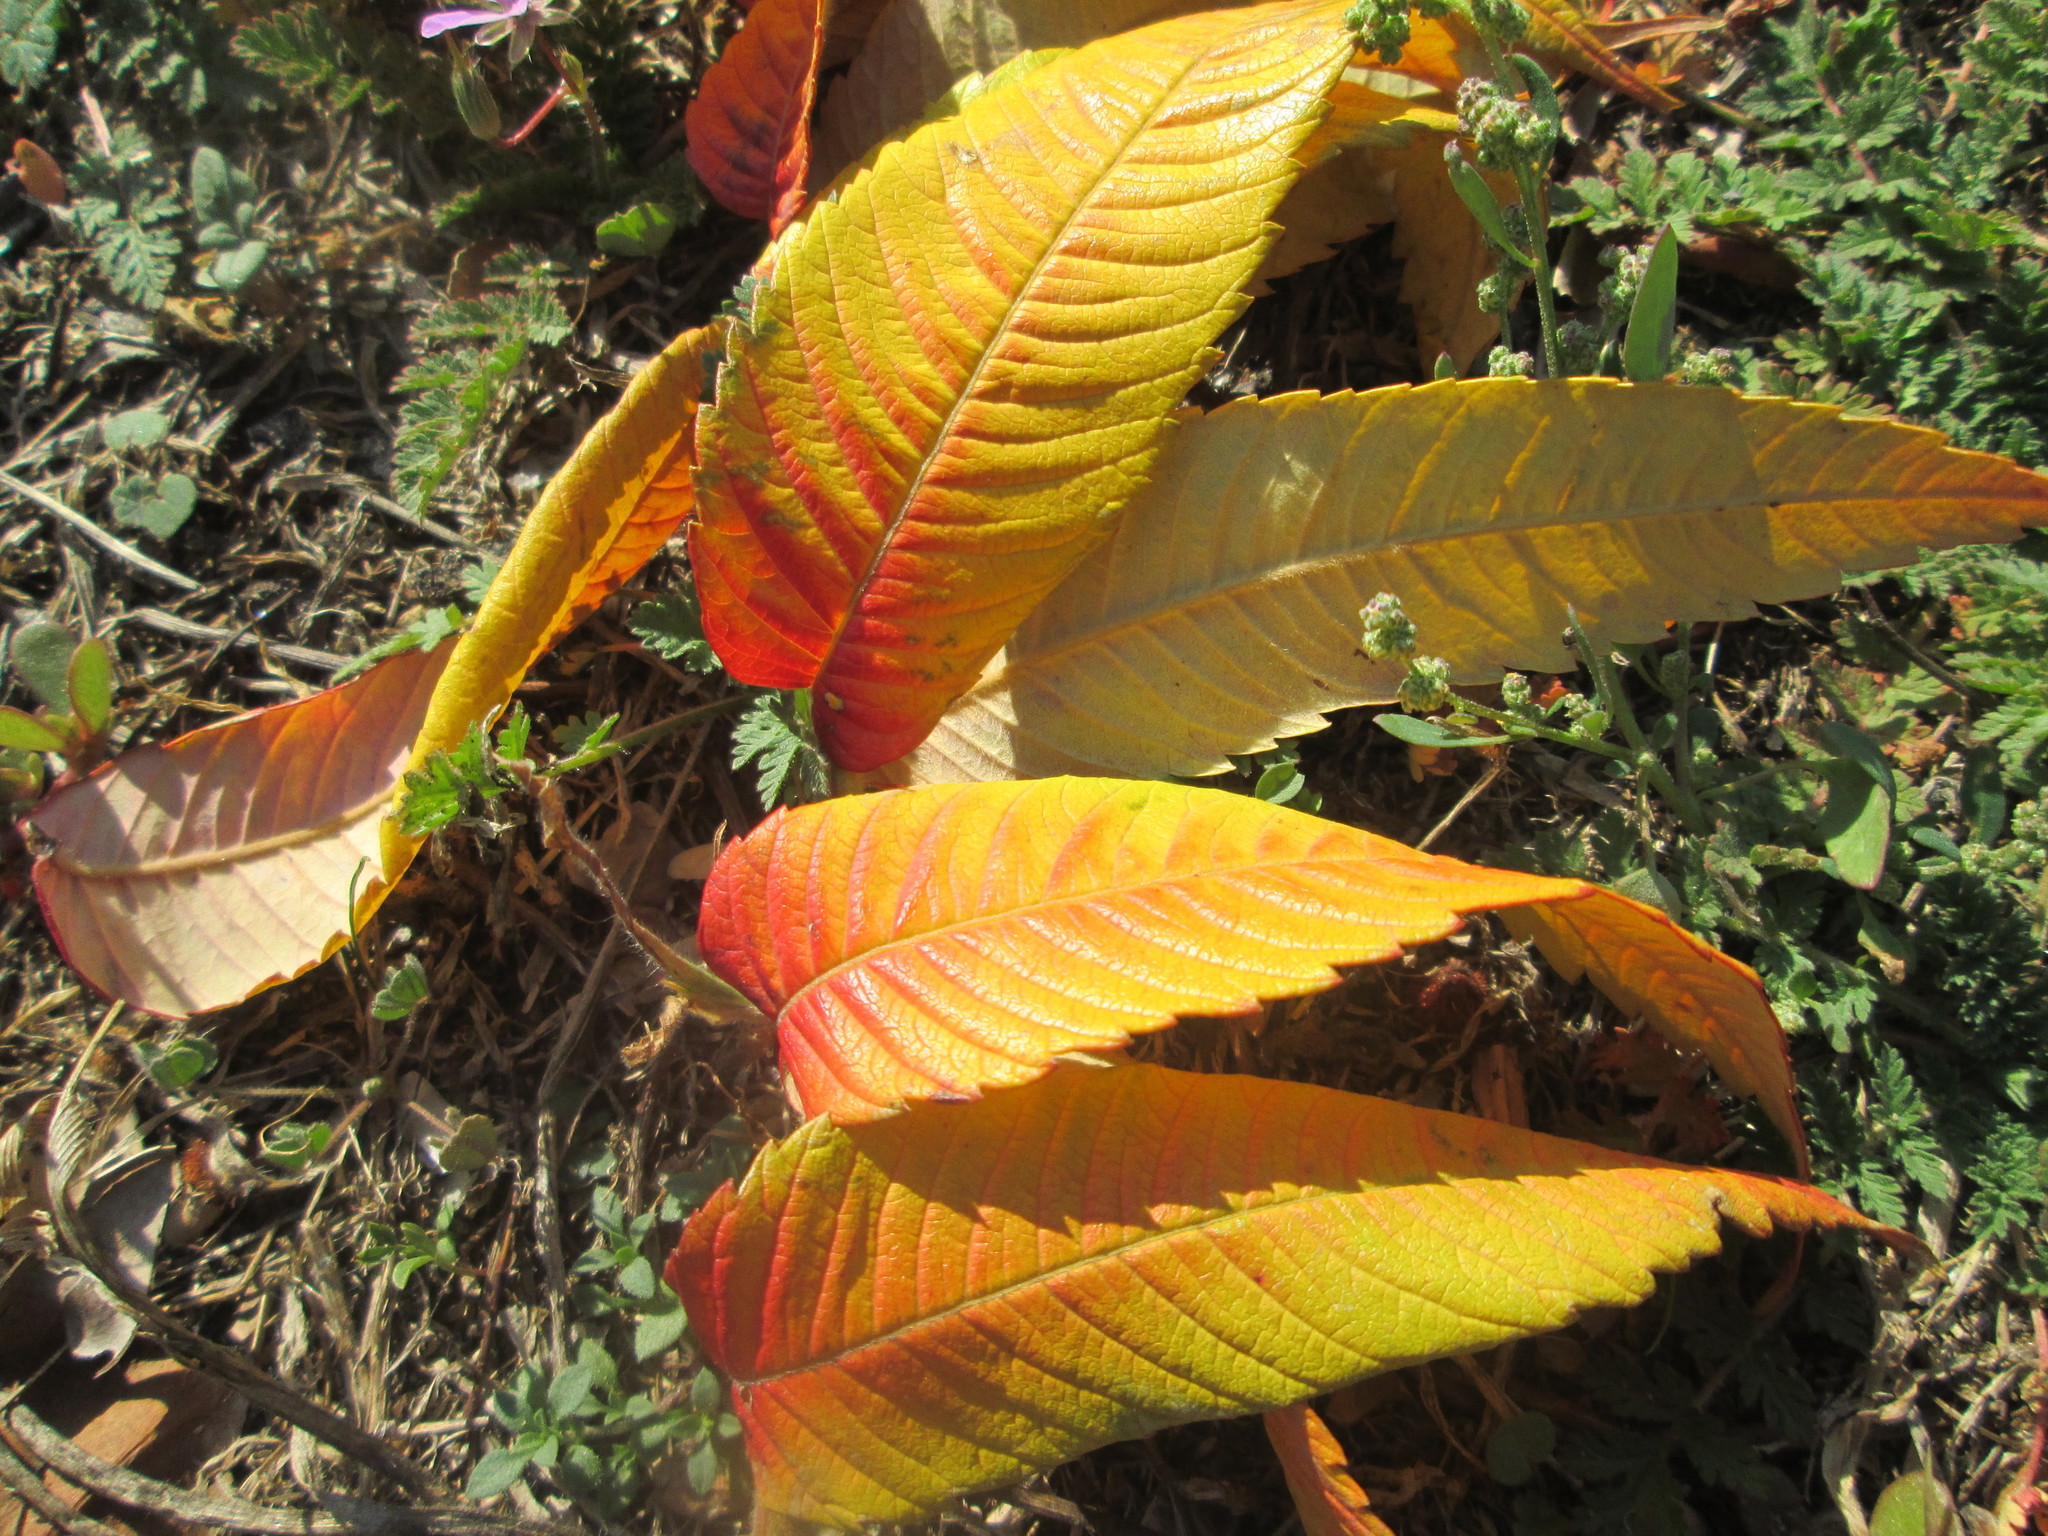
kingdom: Plantae
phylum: Tracheophyta
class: Magnoliopsida
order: Sapindales
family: Anacardiaceae
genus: Rhus
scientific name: Rhus typhina
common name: Staghorn sumac
